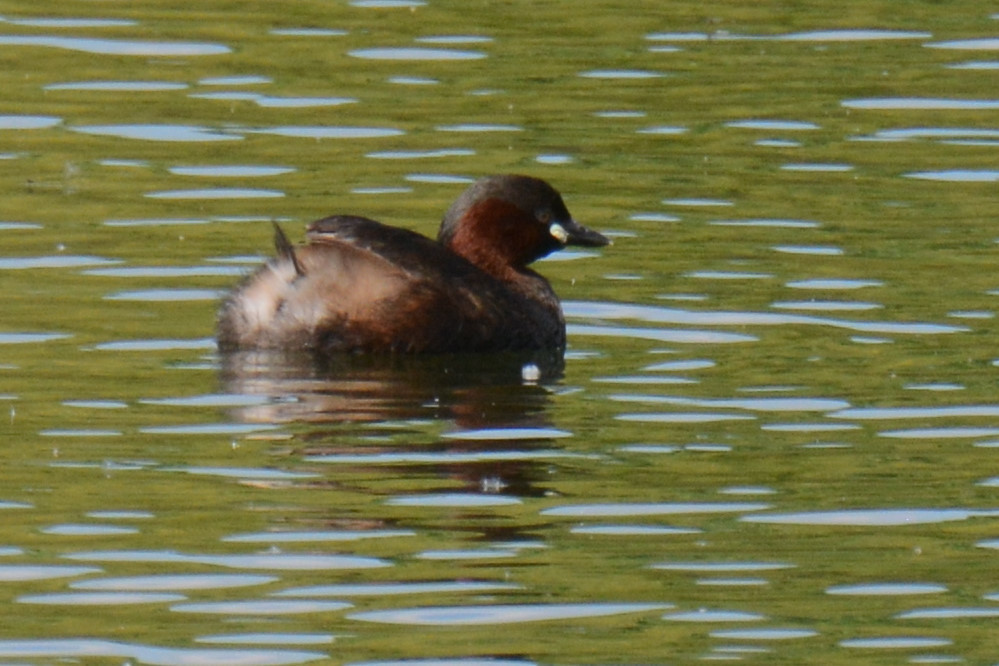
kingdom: Animalia
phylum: Chordata
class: Aves
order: Podicipediformes
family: Podicipedidae
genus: Tachybaptus
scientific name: Tachybaptus ruficollis
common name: Little grebe
